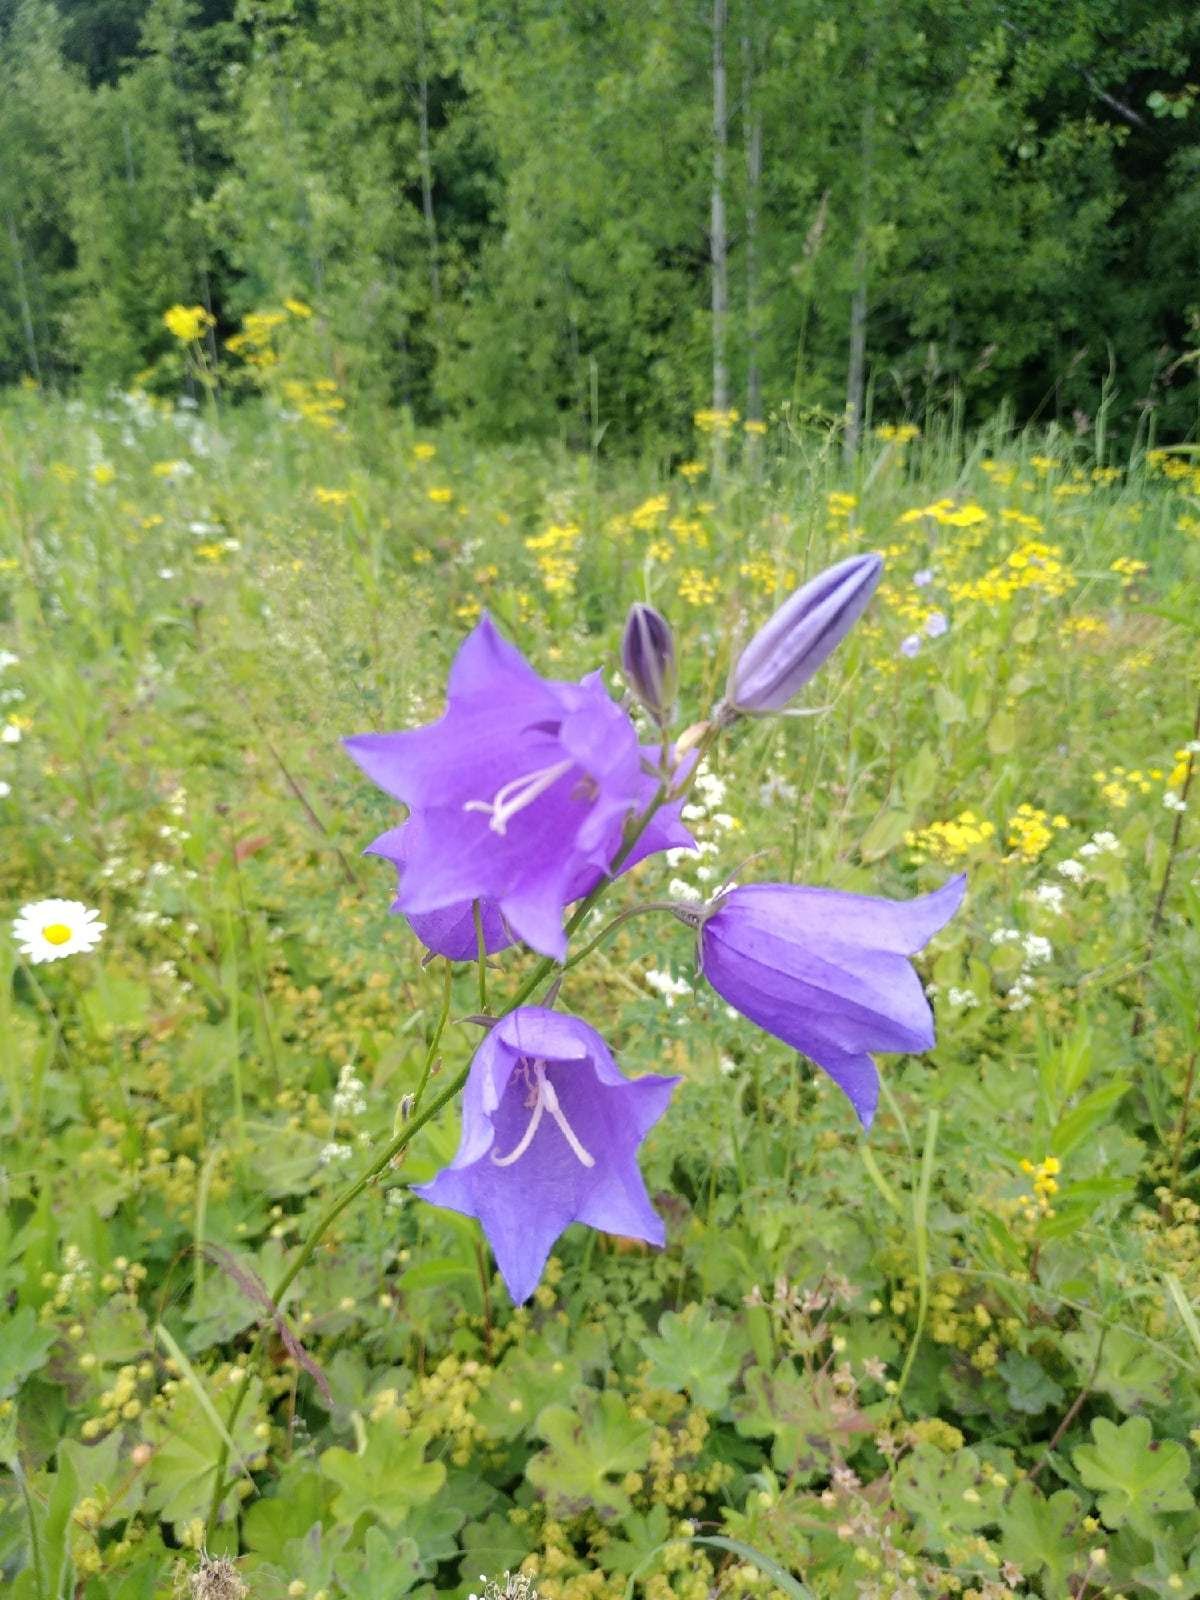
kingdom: Plantae
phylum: Tracheophyta
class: Magnoliopsida
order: Asterales
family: Campanulaceae
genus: Campanula
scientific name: Campanula persicifolia
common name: Peach-leaved bellflower
